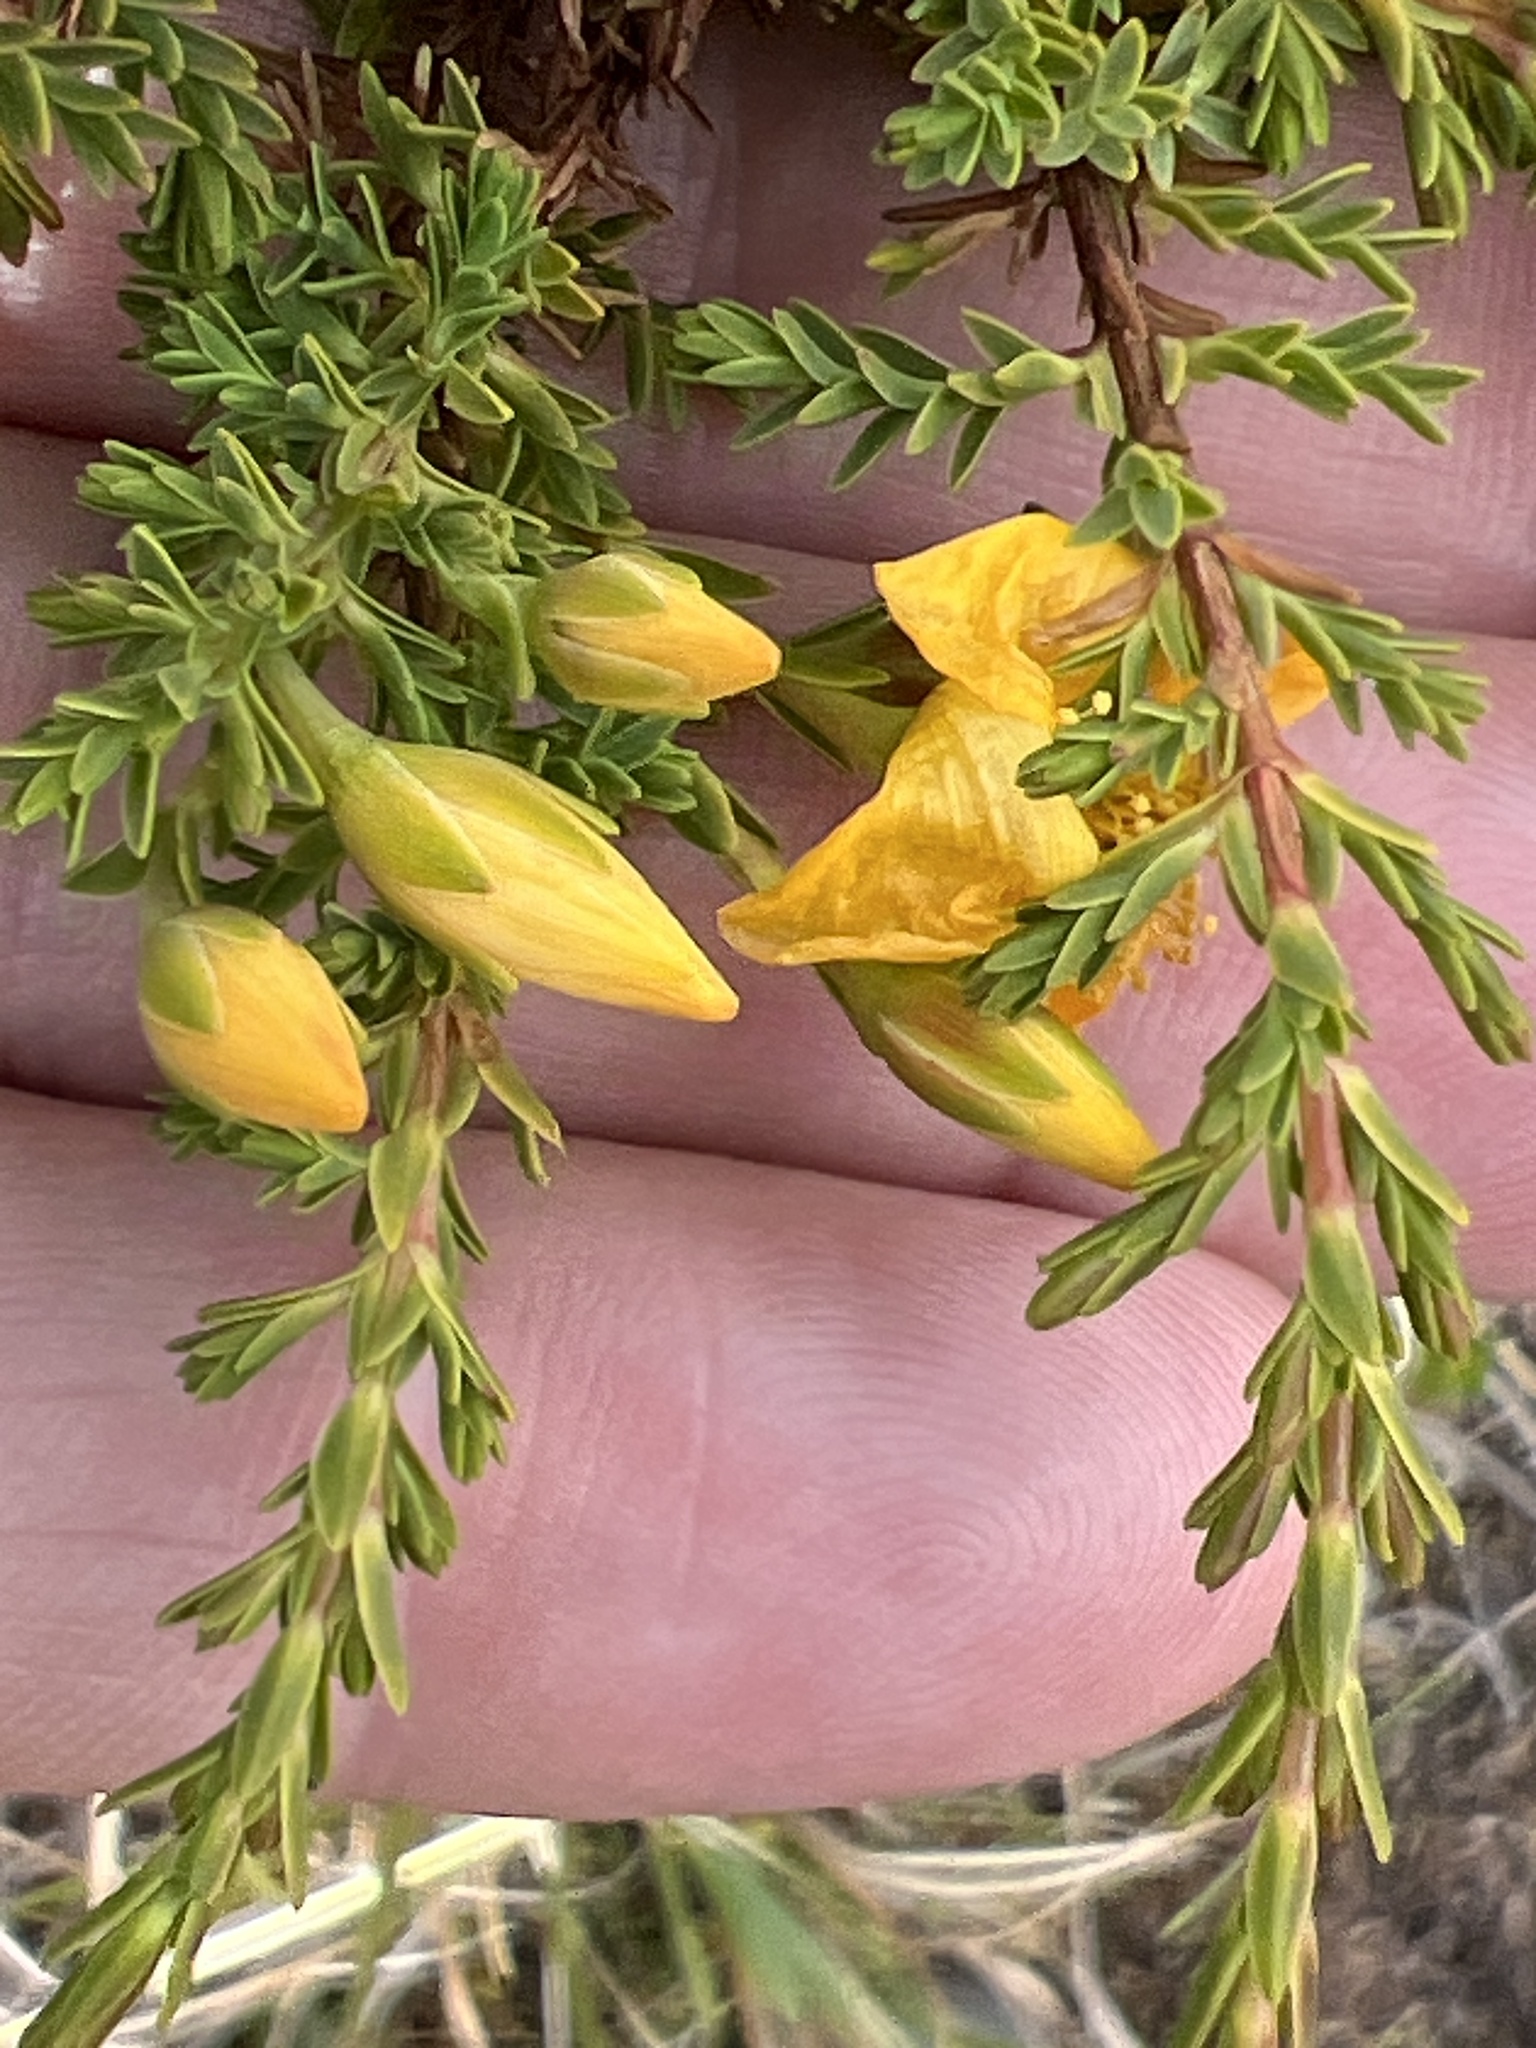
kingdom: Plantae
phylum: Tracheophyta
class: Magnoliopsida
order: Malpighiales
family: Hypericaceae
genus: Hypericum
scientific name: Hypericum laricifolium
